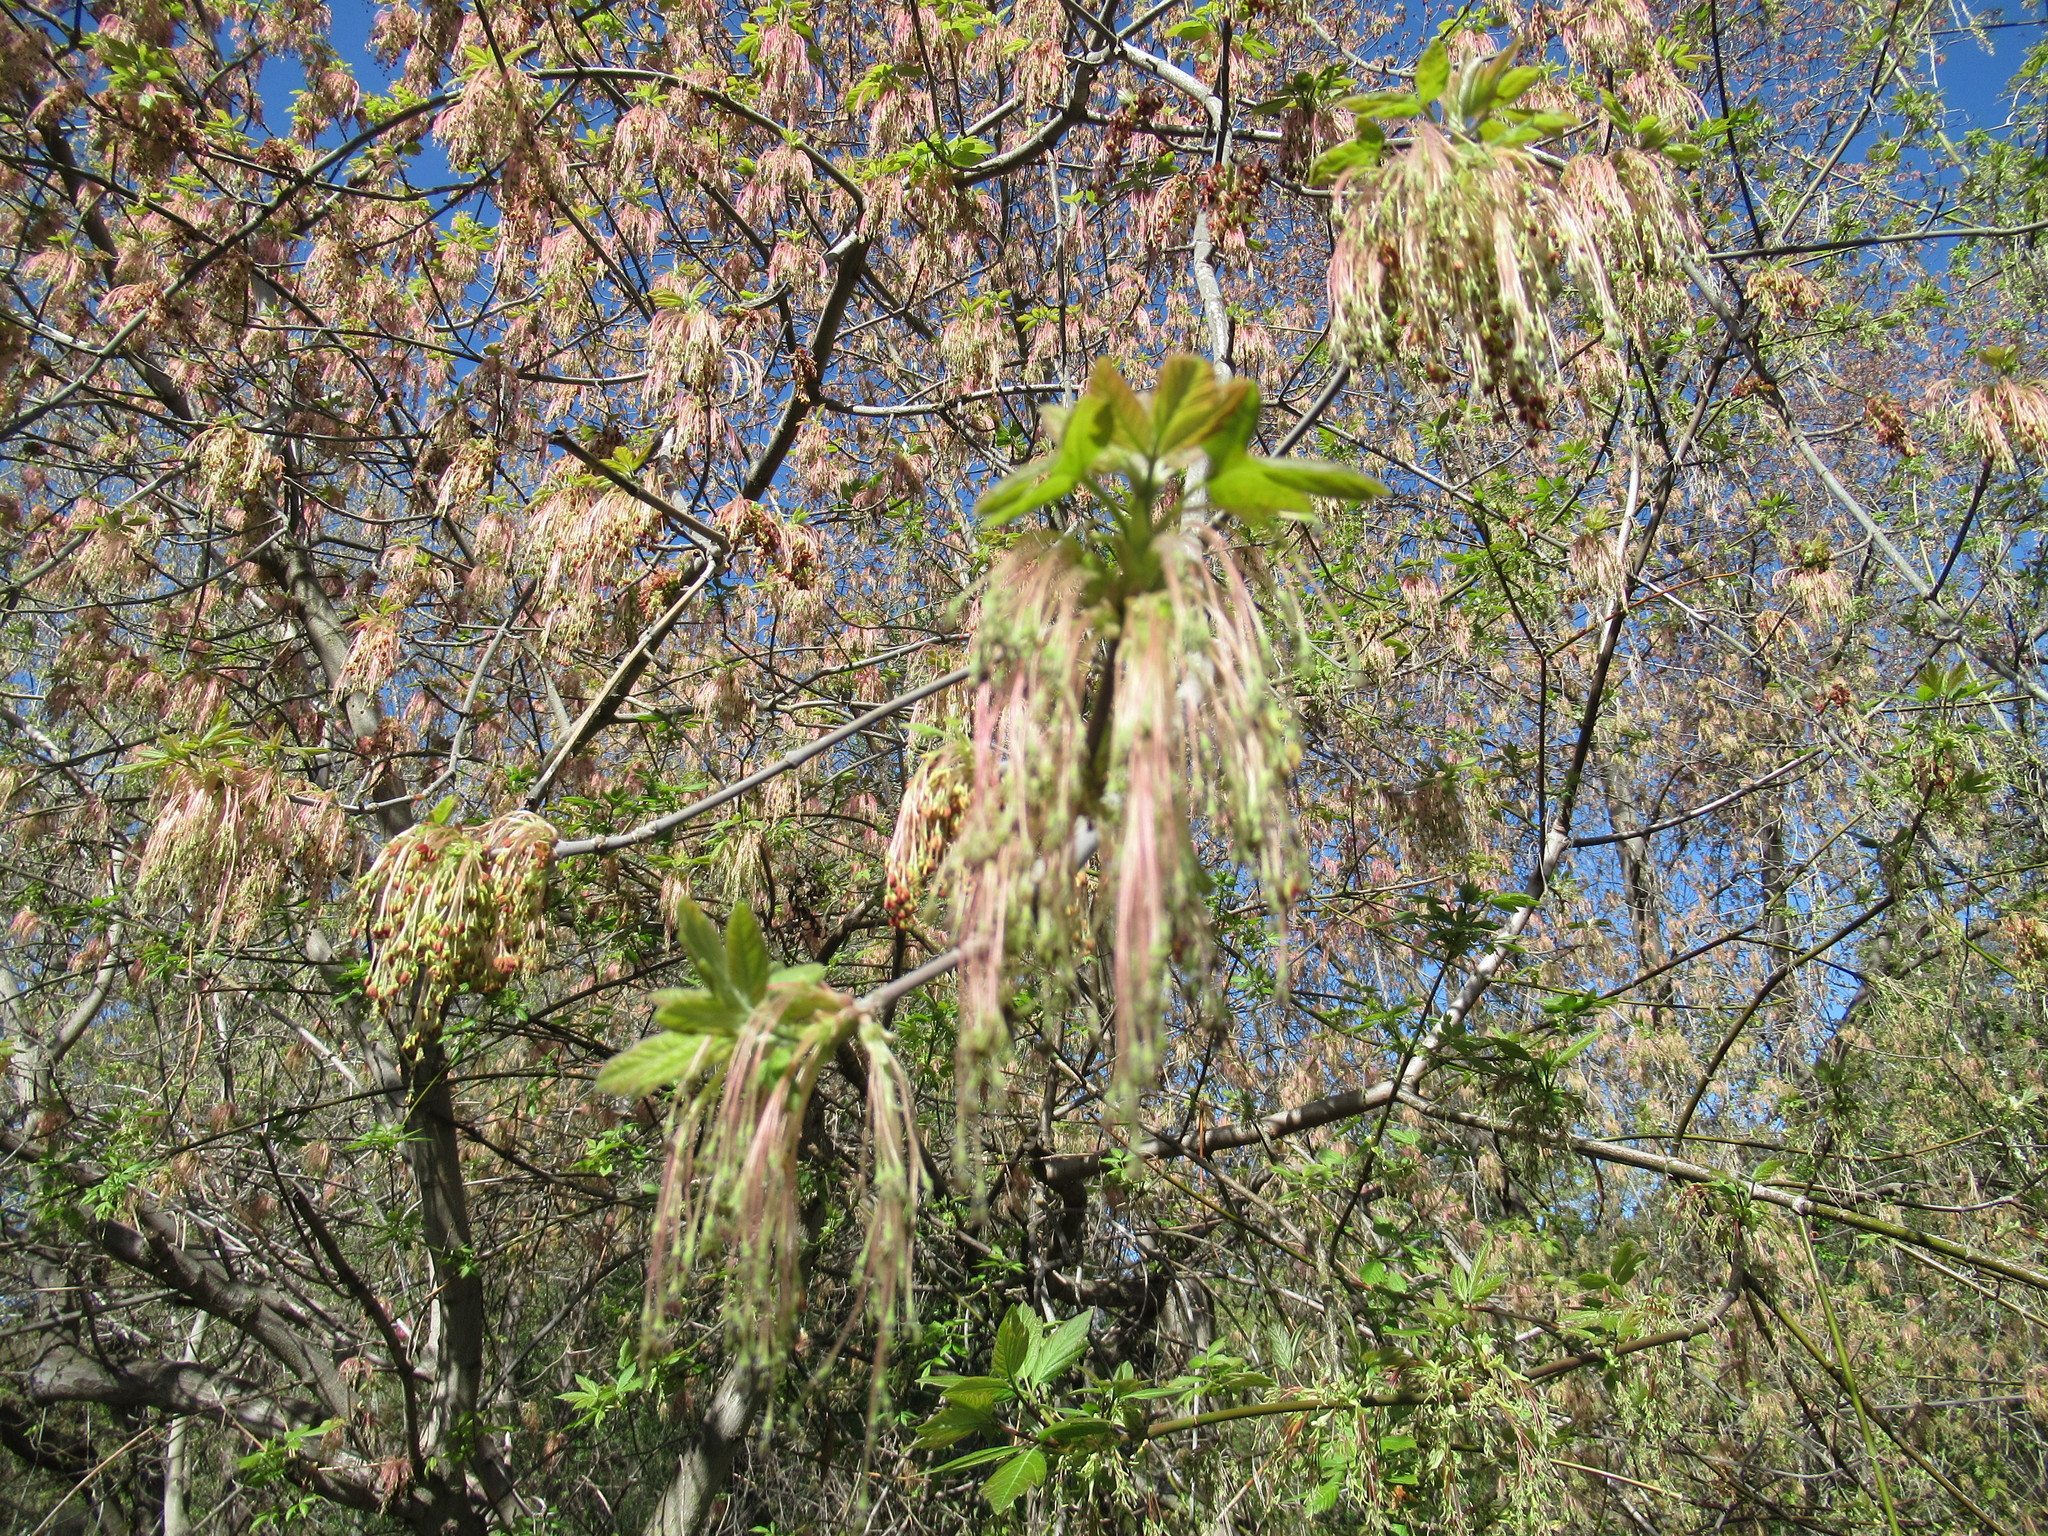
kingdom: Plantae
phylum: Tracheophyta
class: Magnoliopsida
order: Sapindales
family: Sapindaceae
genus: Acer
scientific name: Acer negundo
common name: Ashleaf maple
